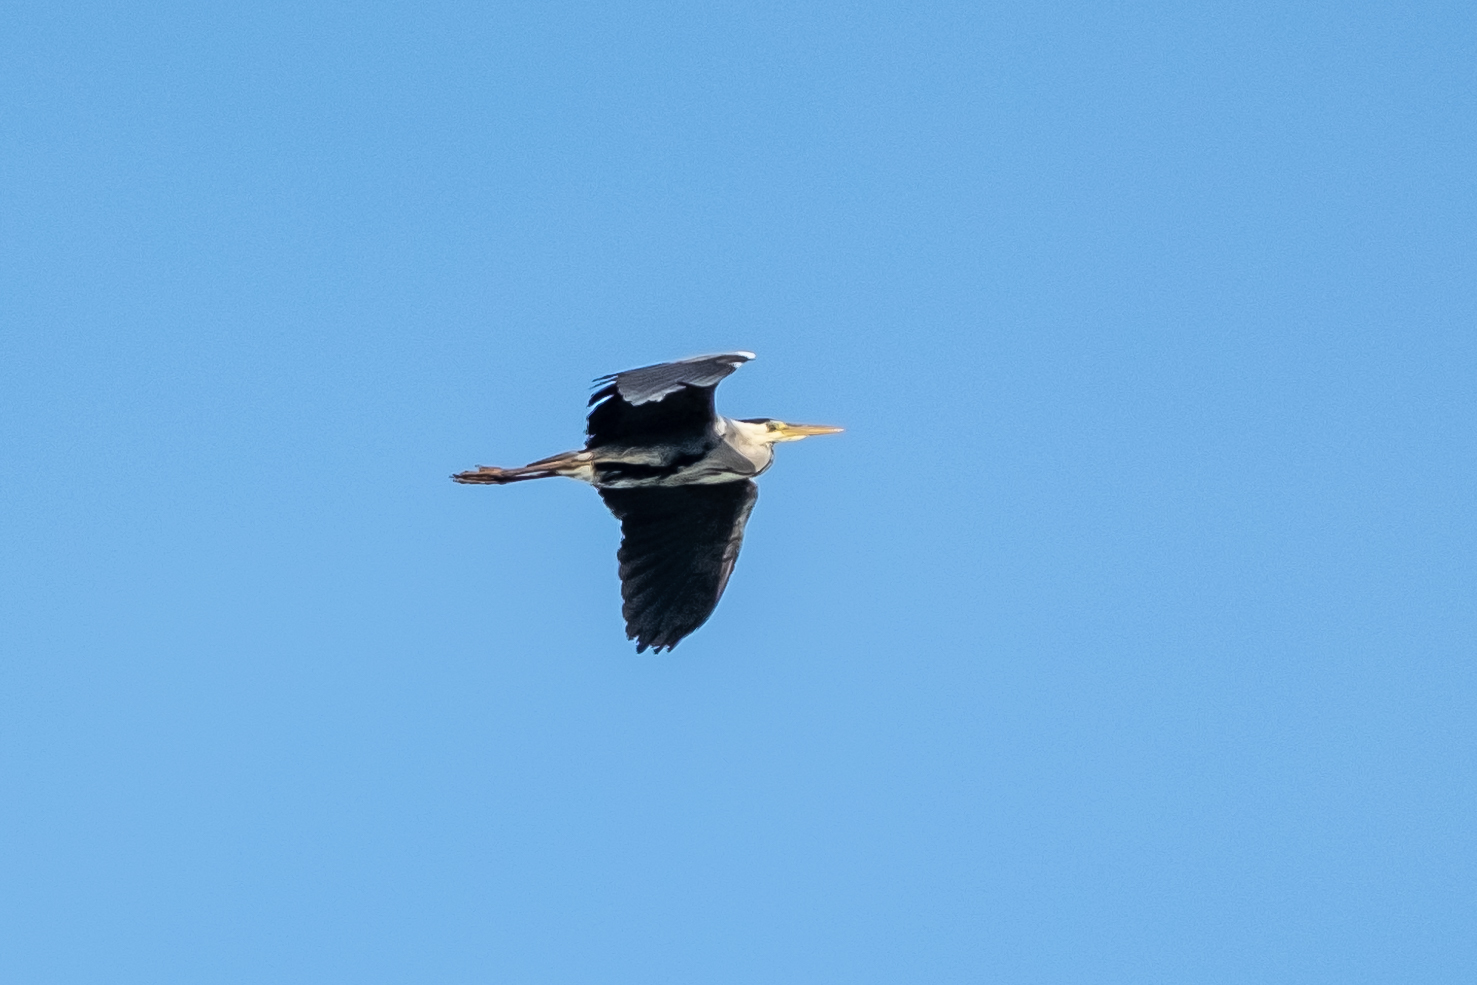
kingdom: Animalia
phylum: Chordata
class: Aves
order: Pelecaniformes
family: Ardeidae
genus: Ardea
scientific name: Ardea cinerea
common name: Grey heron
